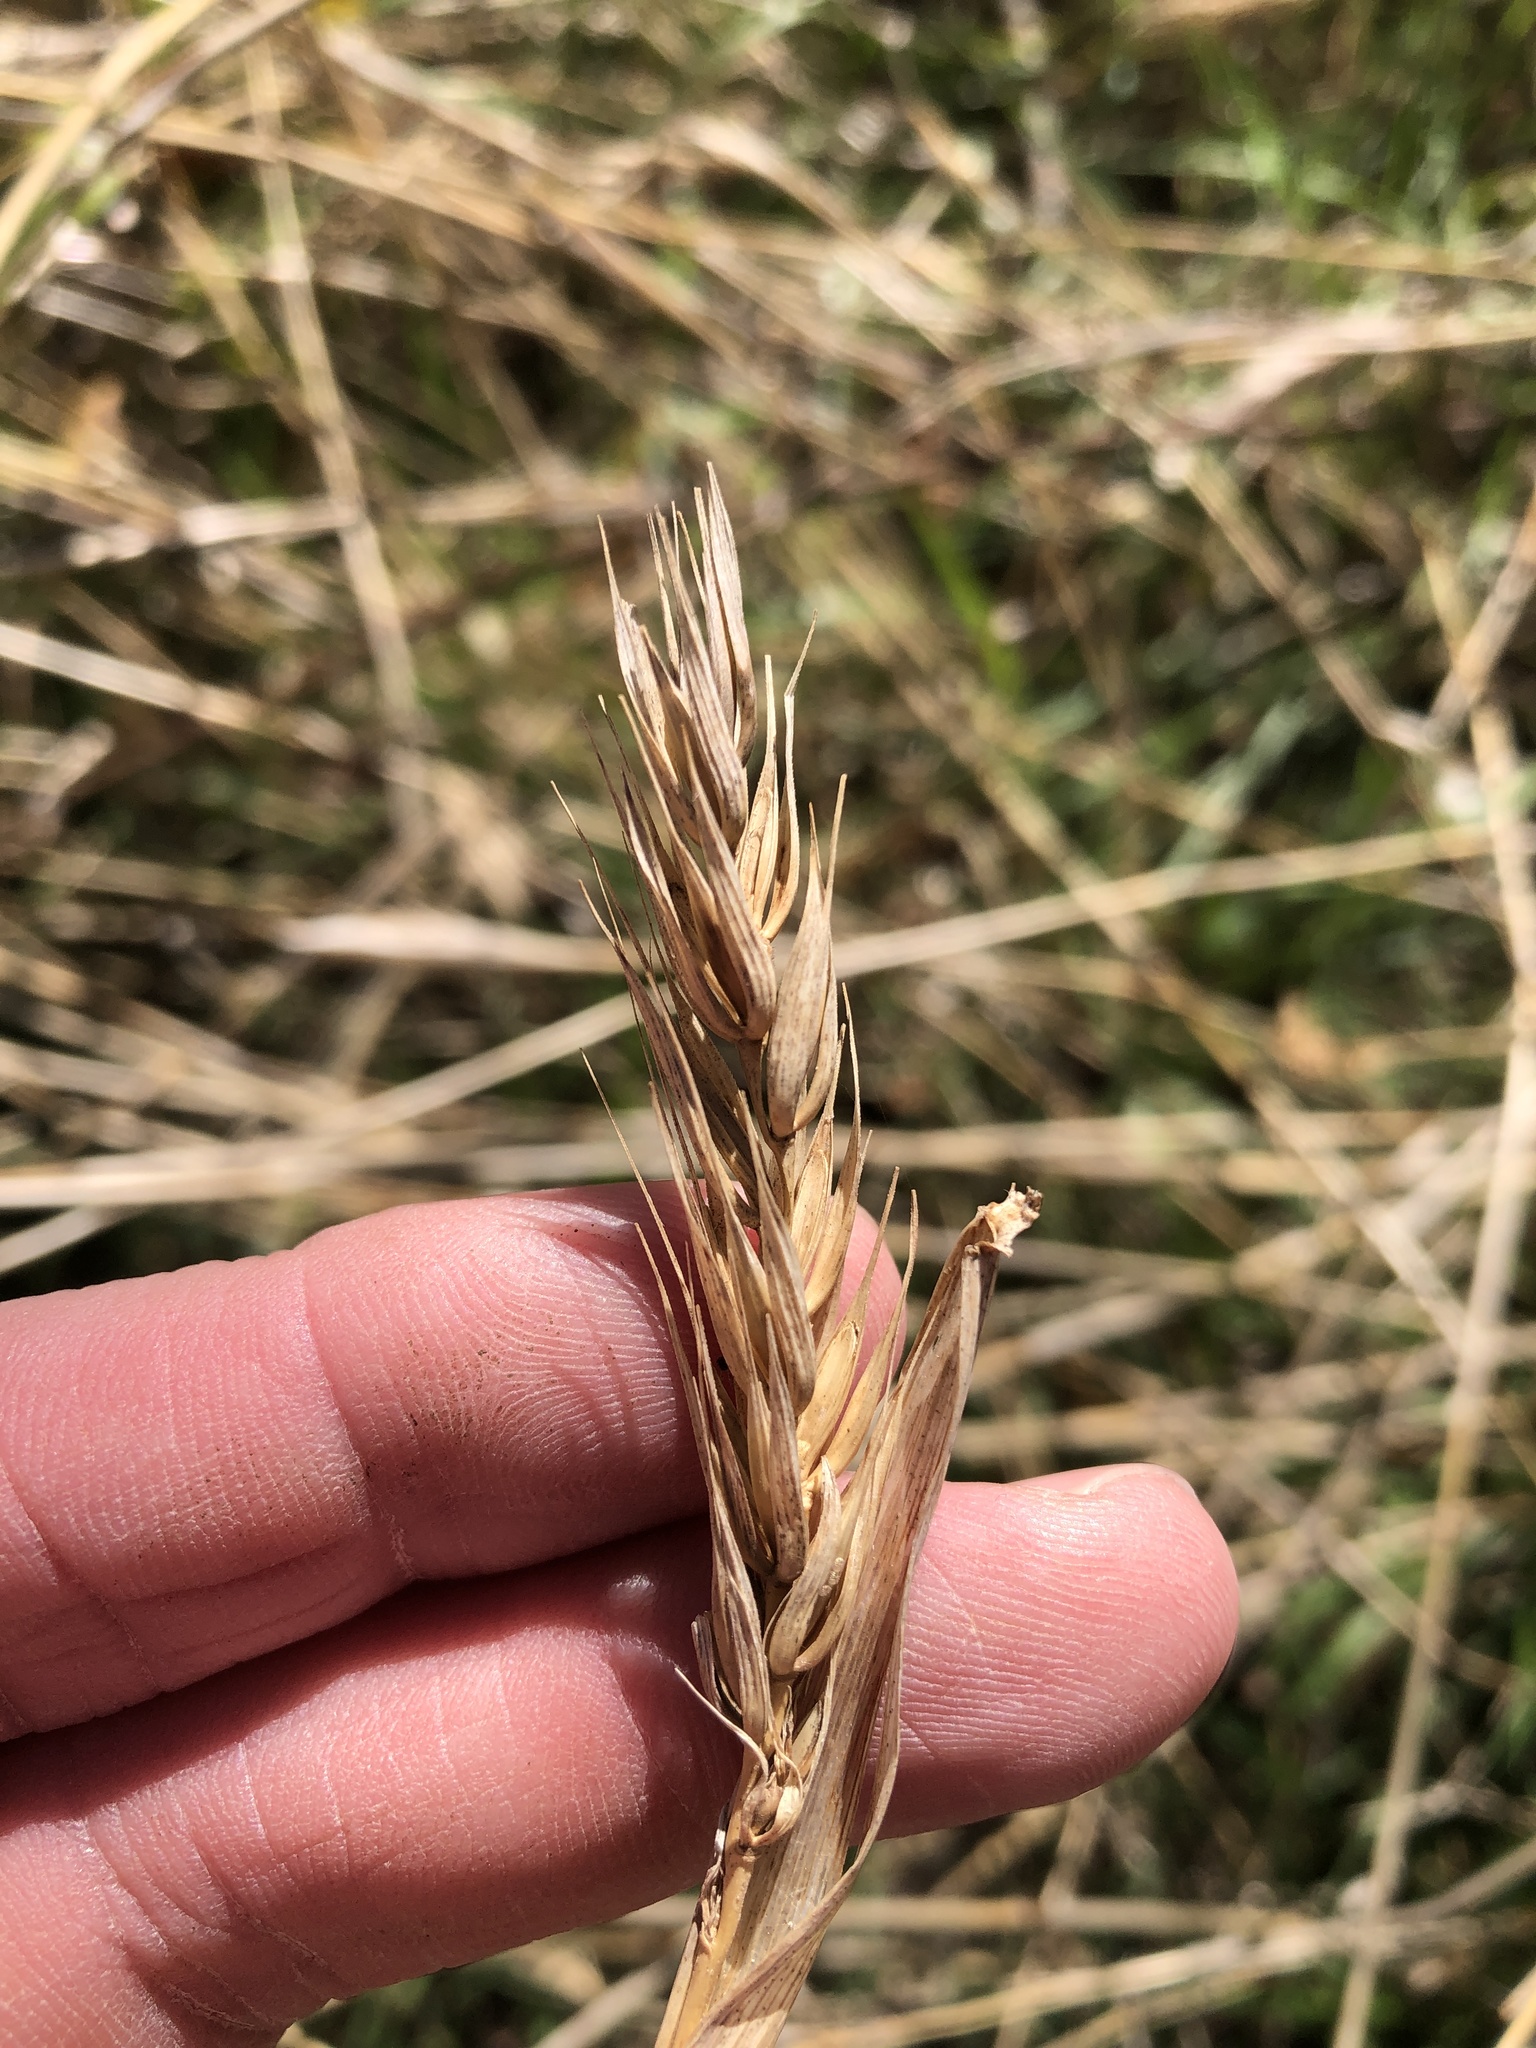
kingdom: Plantae
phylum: Tracheophyta
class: Liliopsida
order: Poales
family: Poaceae
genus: Elymus
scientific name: Elymus virginicus
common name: Common eastern wildrye
